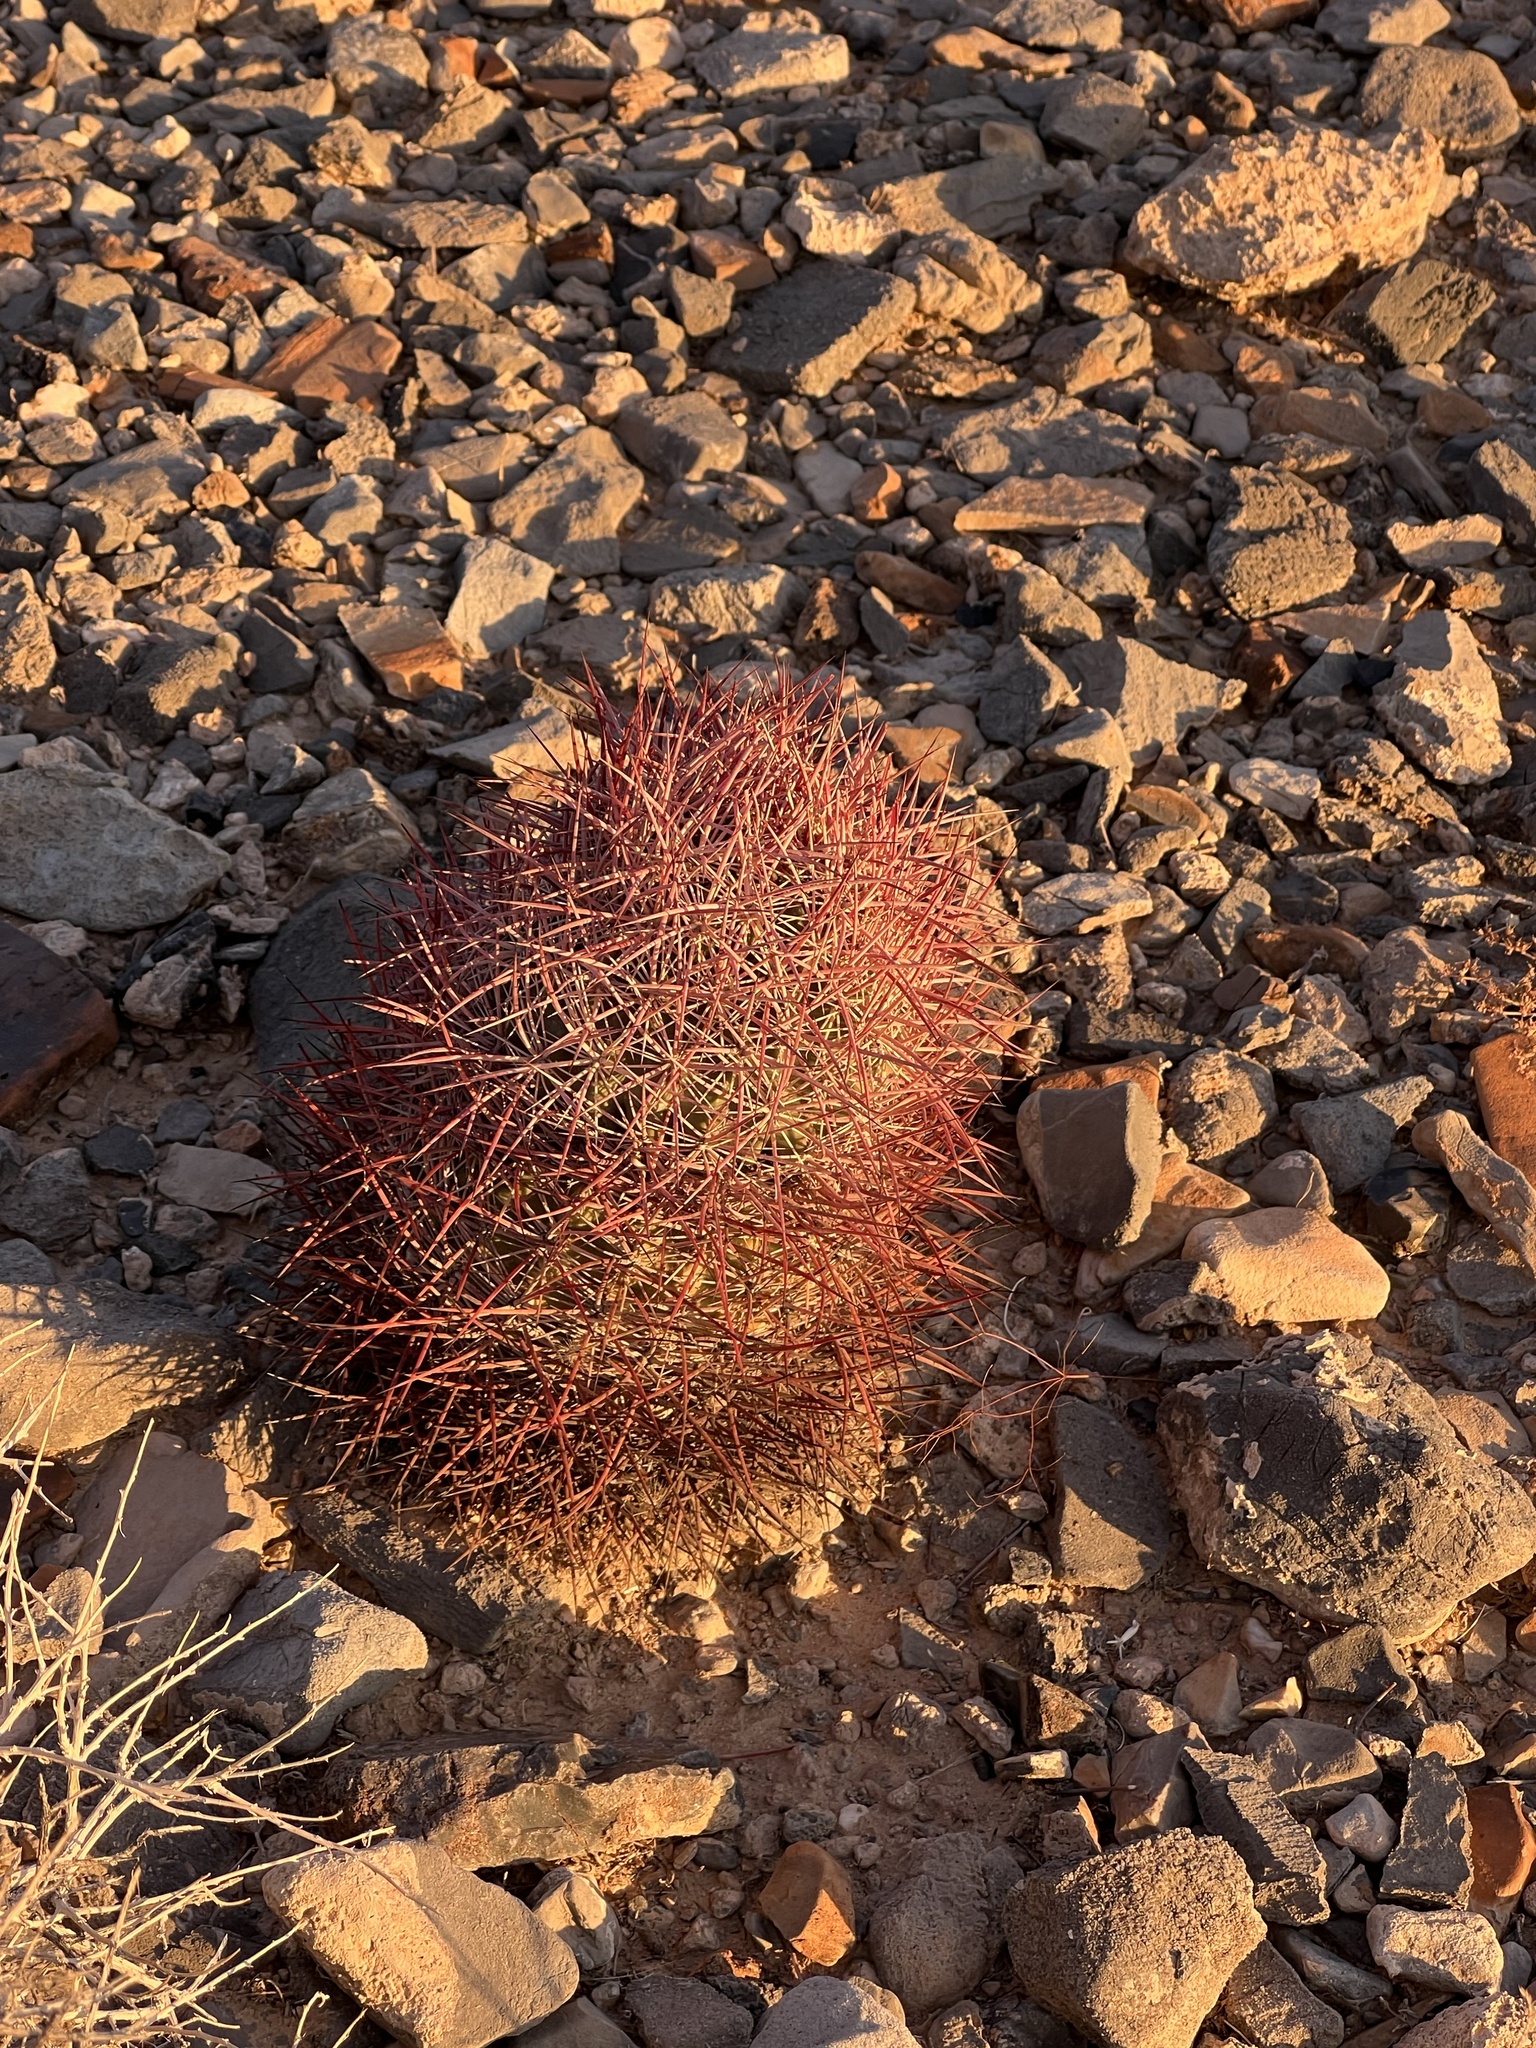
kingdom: Plantae
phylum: Tracheophyta
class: Magnoliopsida
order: Caryophyllales
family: Cactaceae
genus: Sclerocactus
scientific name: Sclerocactus johnsonii
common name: Eight-spine fishhook cactus
